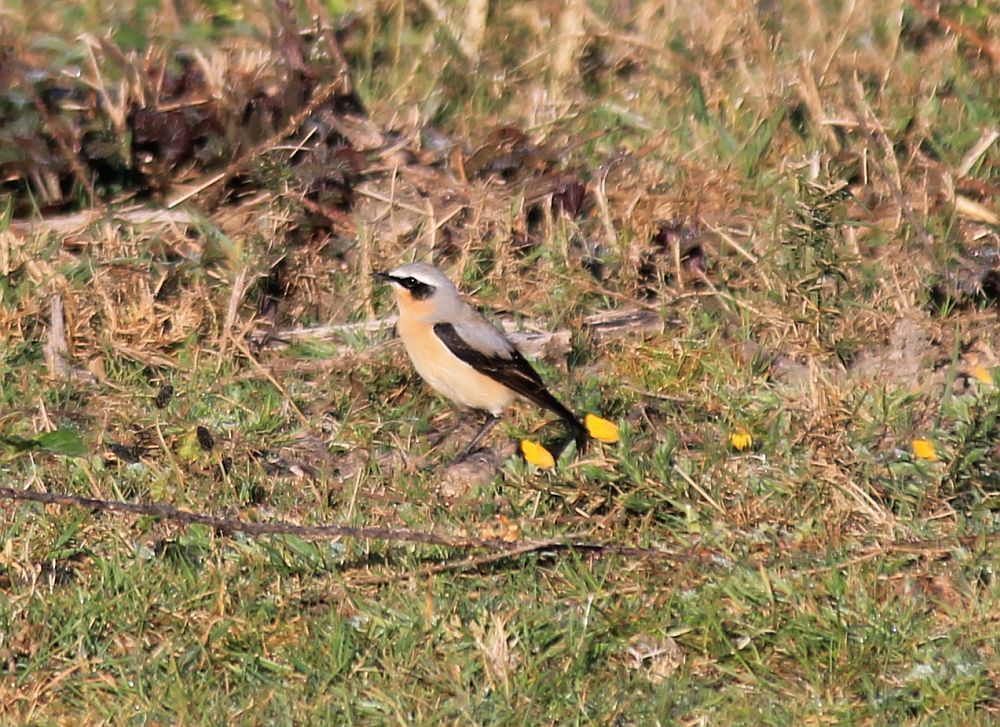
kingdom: Animalia
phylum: Chordata
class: Aves
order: Passeriformes
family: Muscicapidae
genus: Oenanthe
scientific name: Oenanthe oenanthe
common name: Northern wheatear
